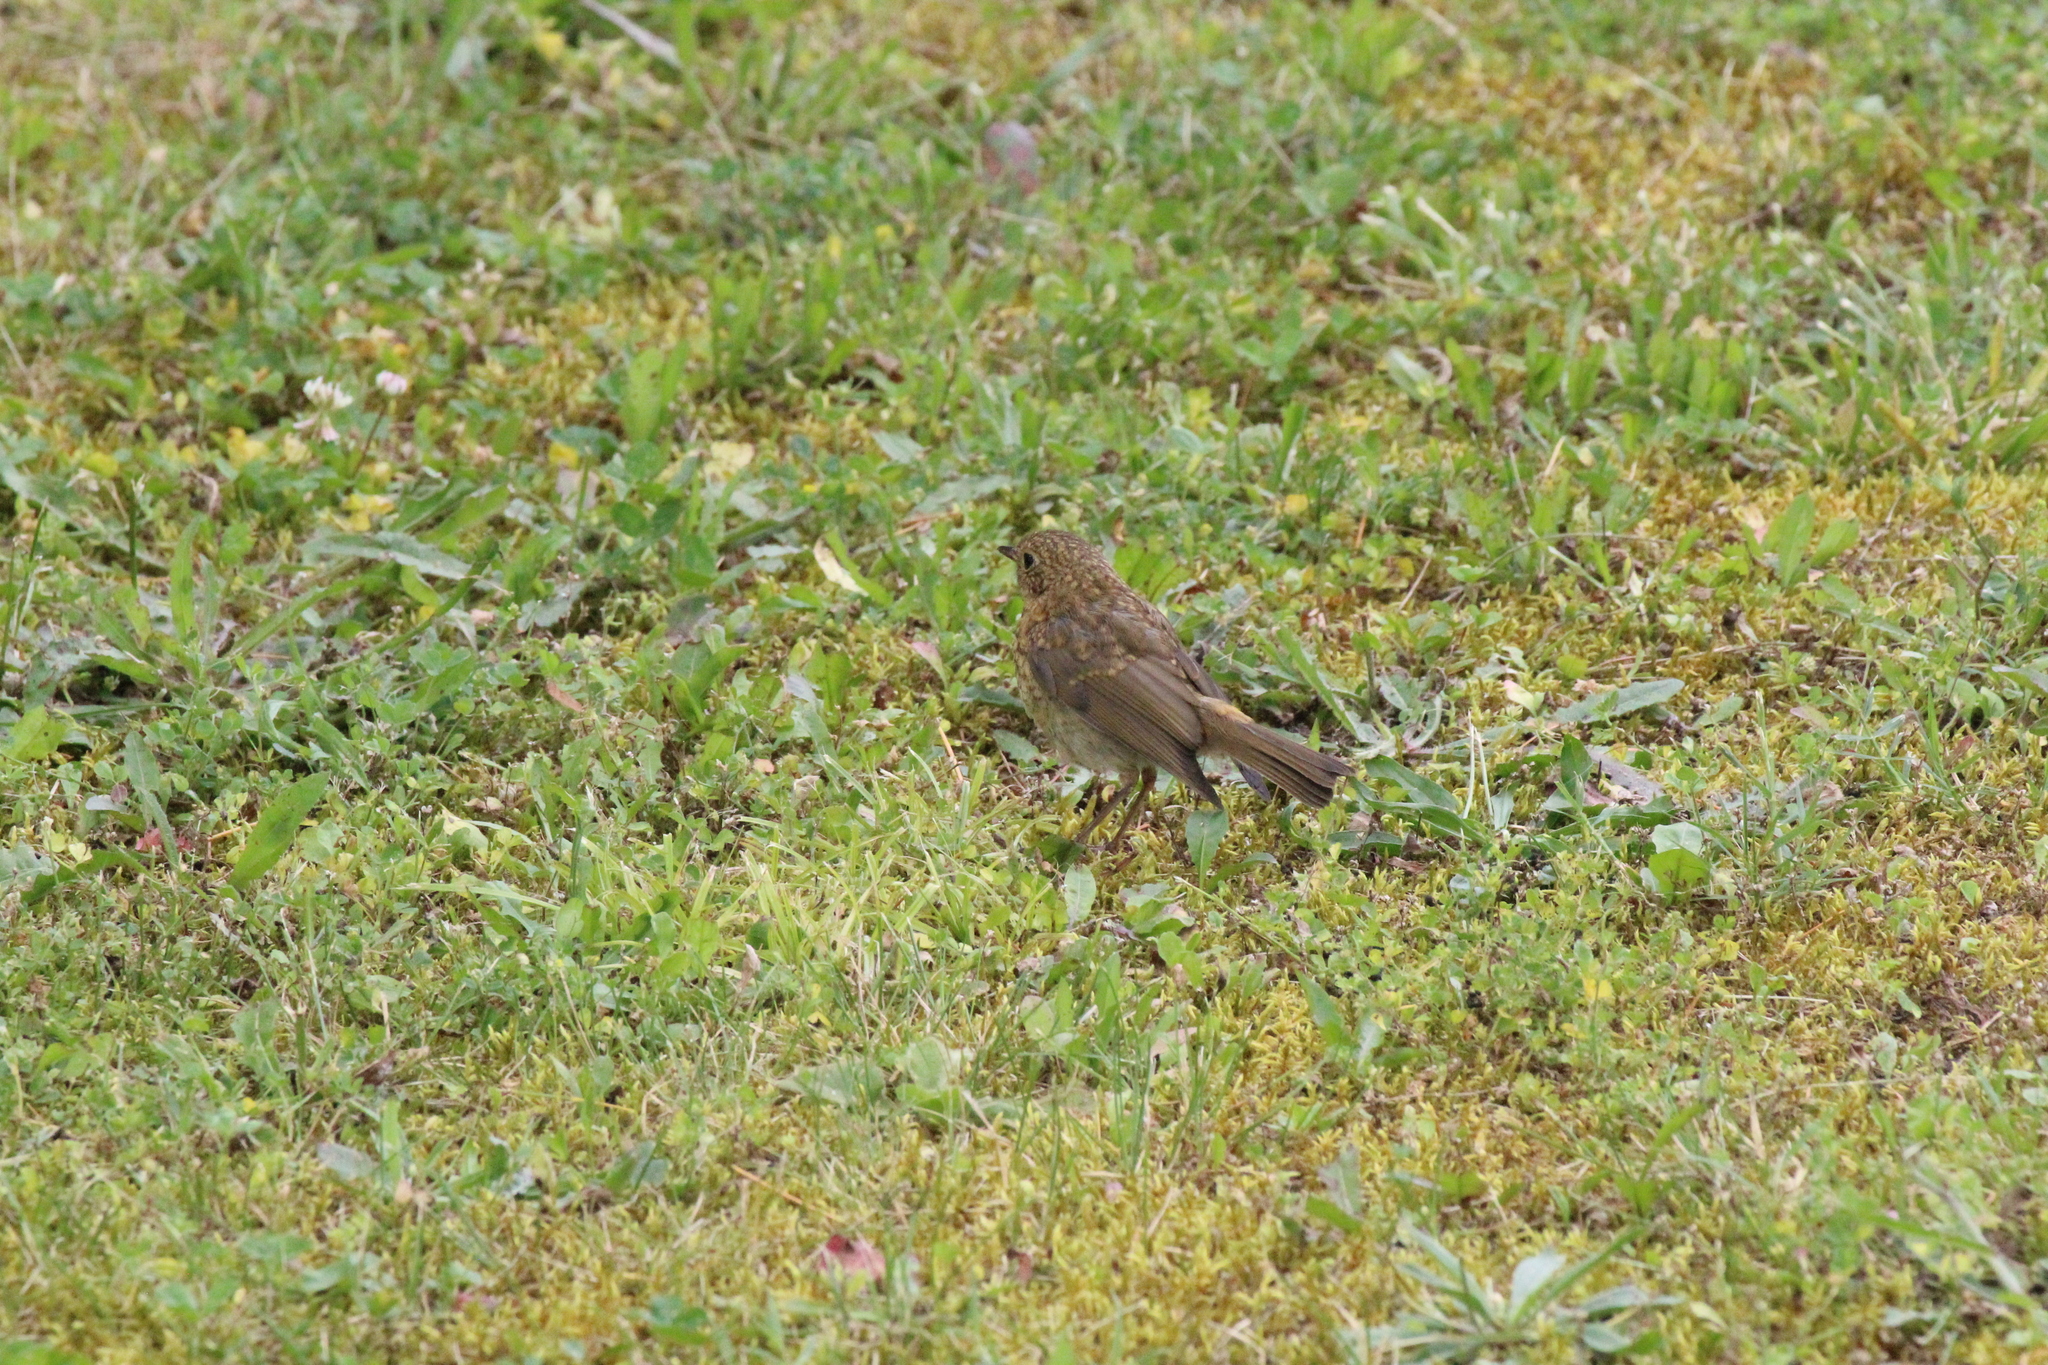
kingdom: Animalia
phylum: Chordata
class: Aves
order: Passeriformes
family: Muscicapidae
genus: Erithacus
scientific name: Erithacus rubecula
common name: European robin
